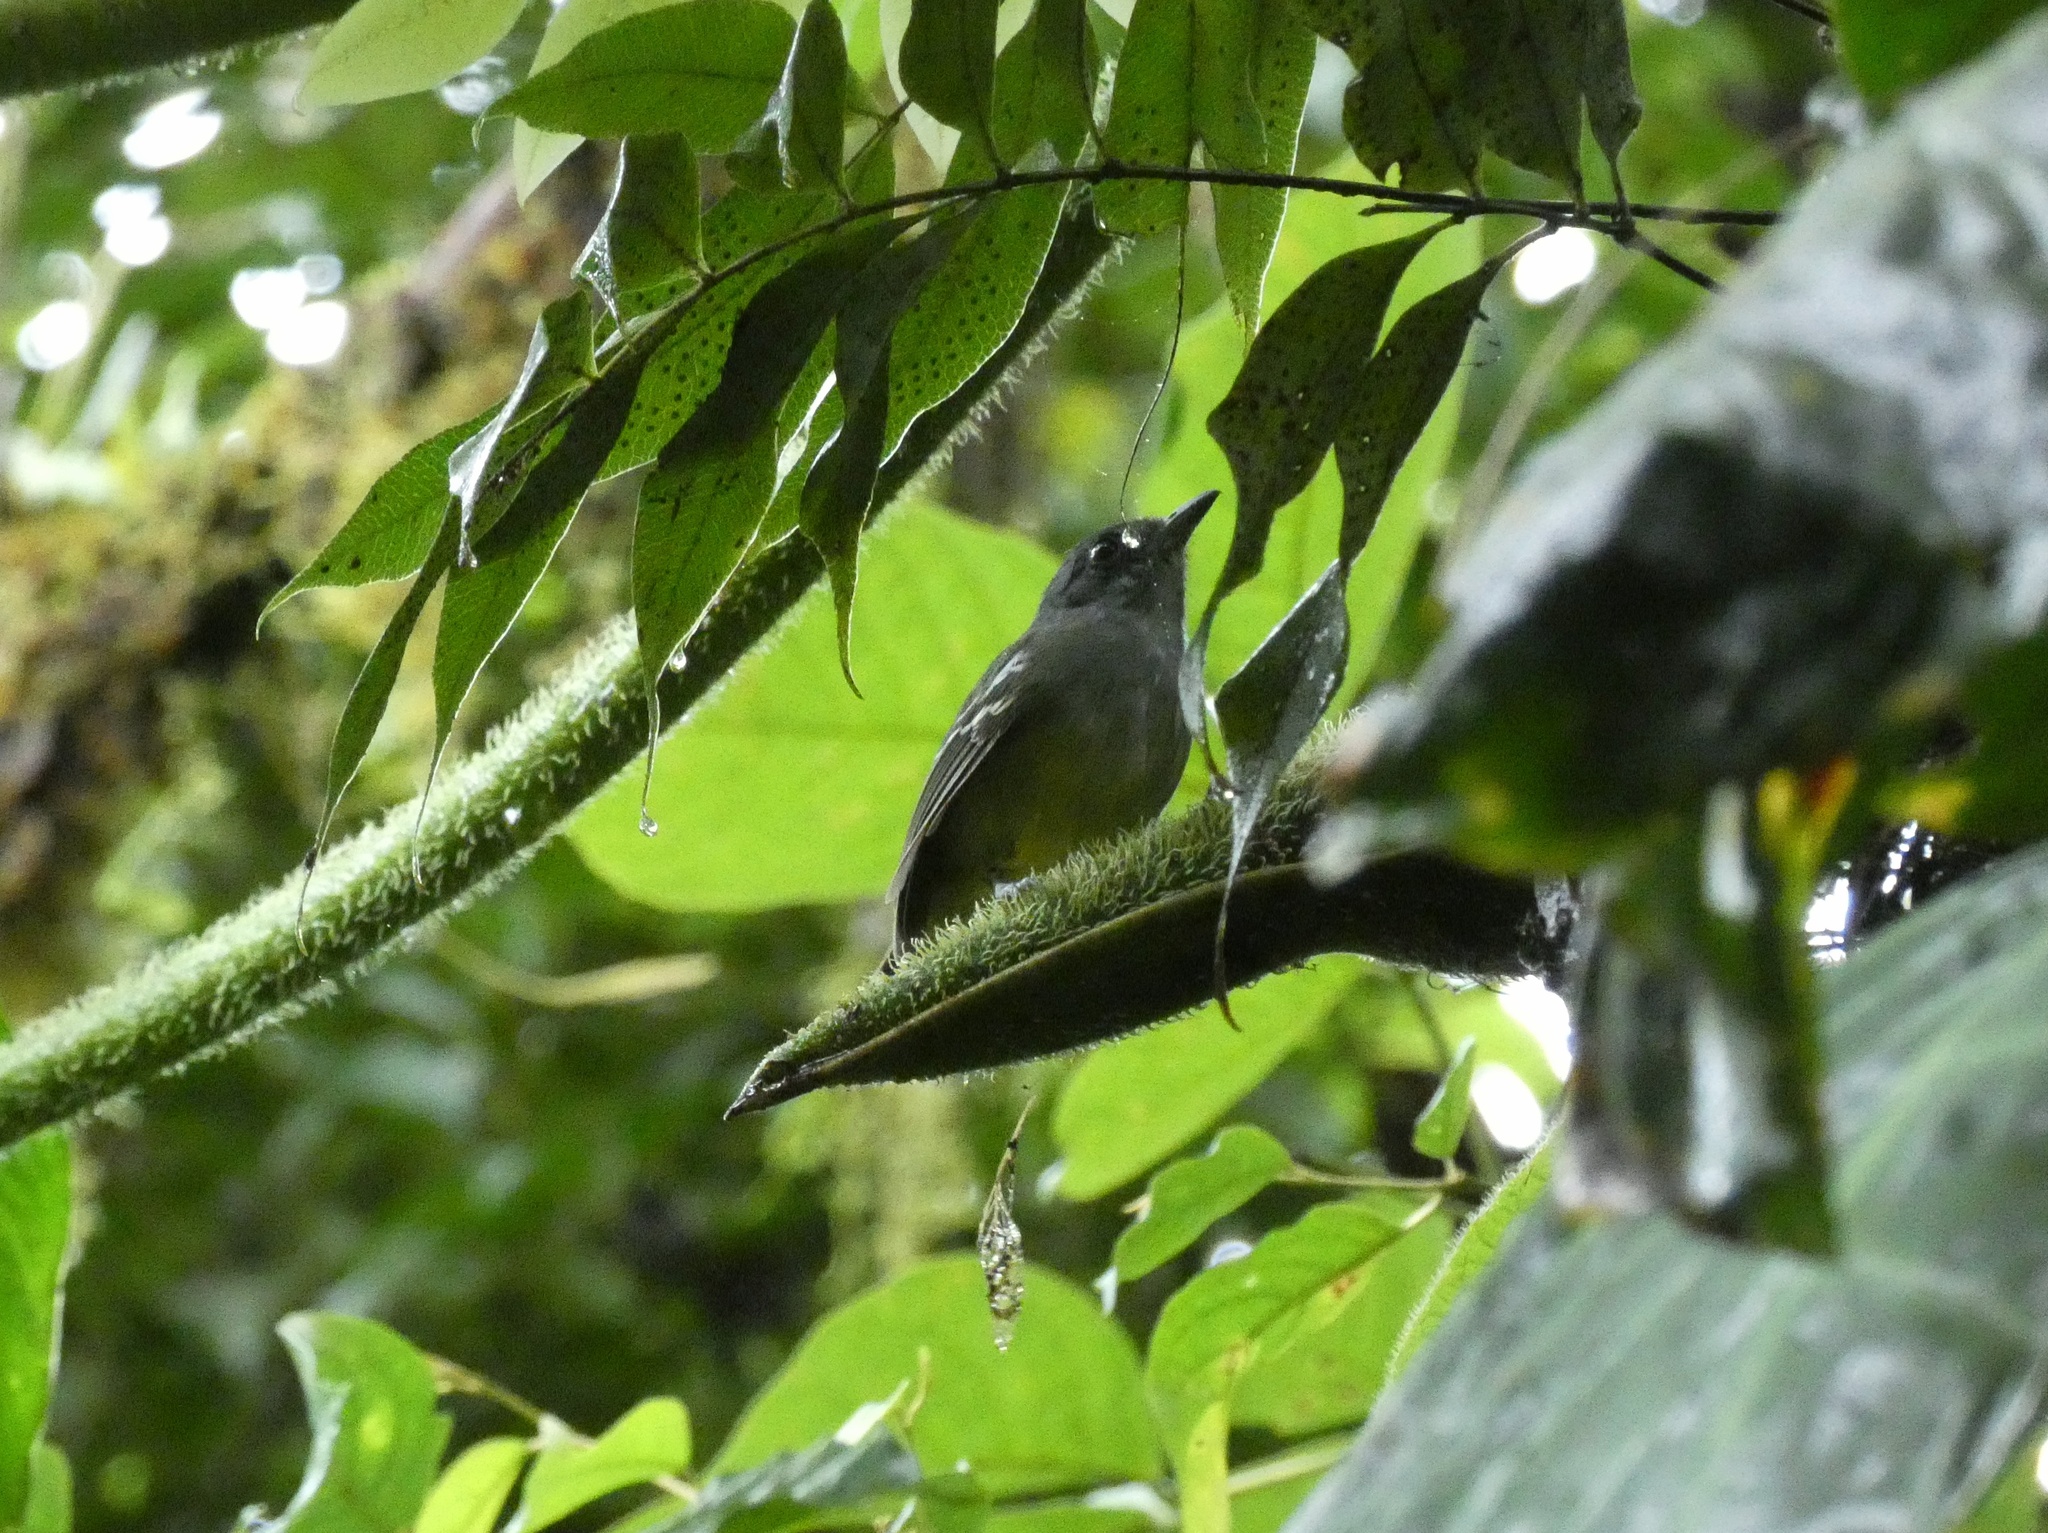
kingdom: Animalia
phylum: Chordata
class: Aves
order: Passeriformes
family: Thamnophilidae
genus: Dysithamnus
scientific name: Dysithamnus mentalis
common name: Plain antvireo
